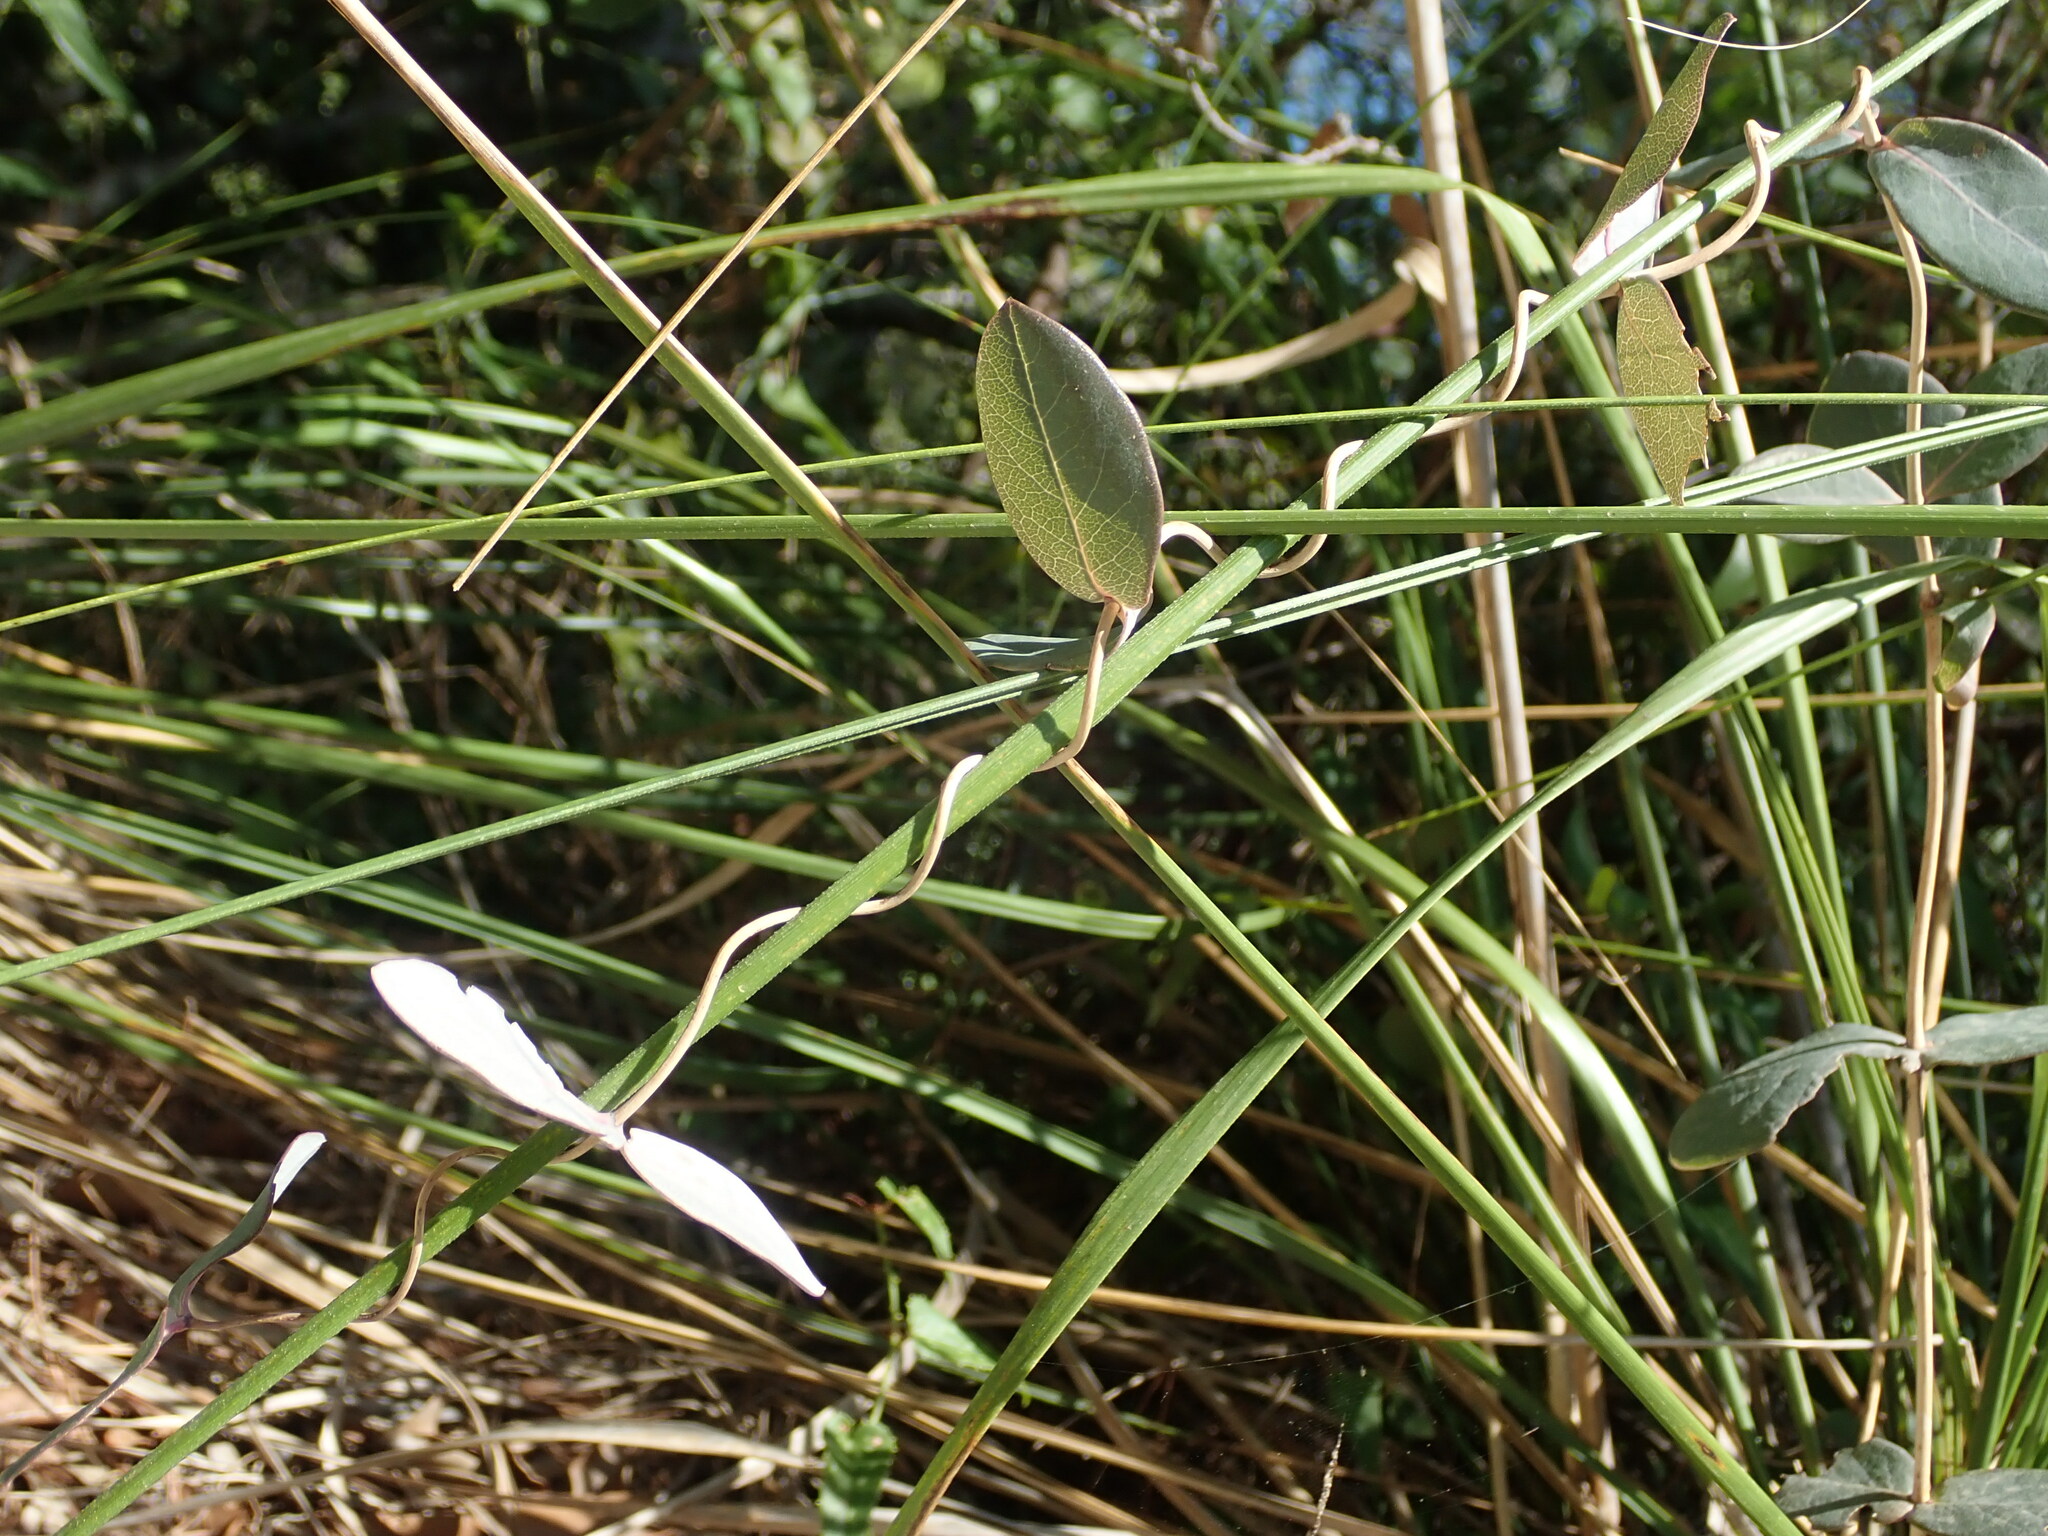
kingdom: Plantae
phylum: Tracheophyta
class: Magnoliopsida
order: Dipsacales
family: Caprifoliaceae
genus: Lonicera
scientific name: Lonicera implexa
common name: Minorca honeysuckle
